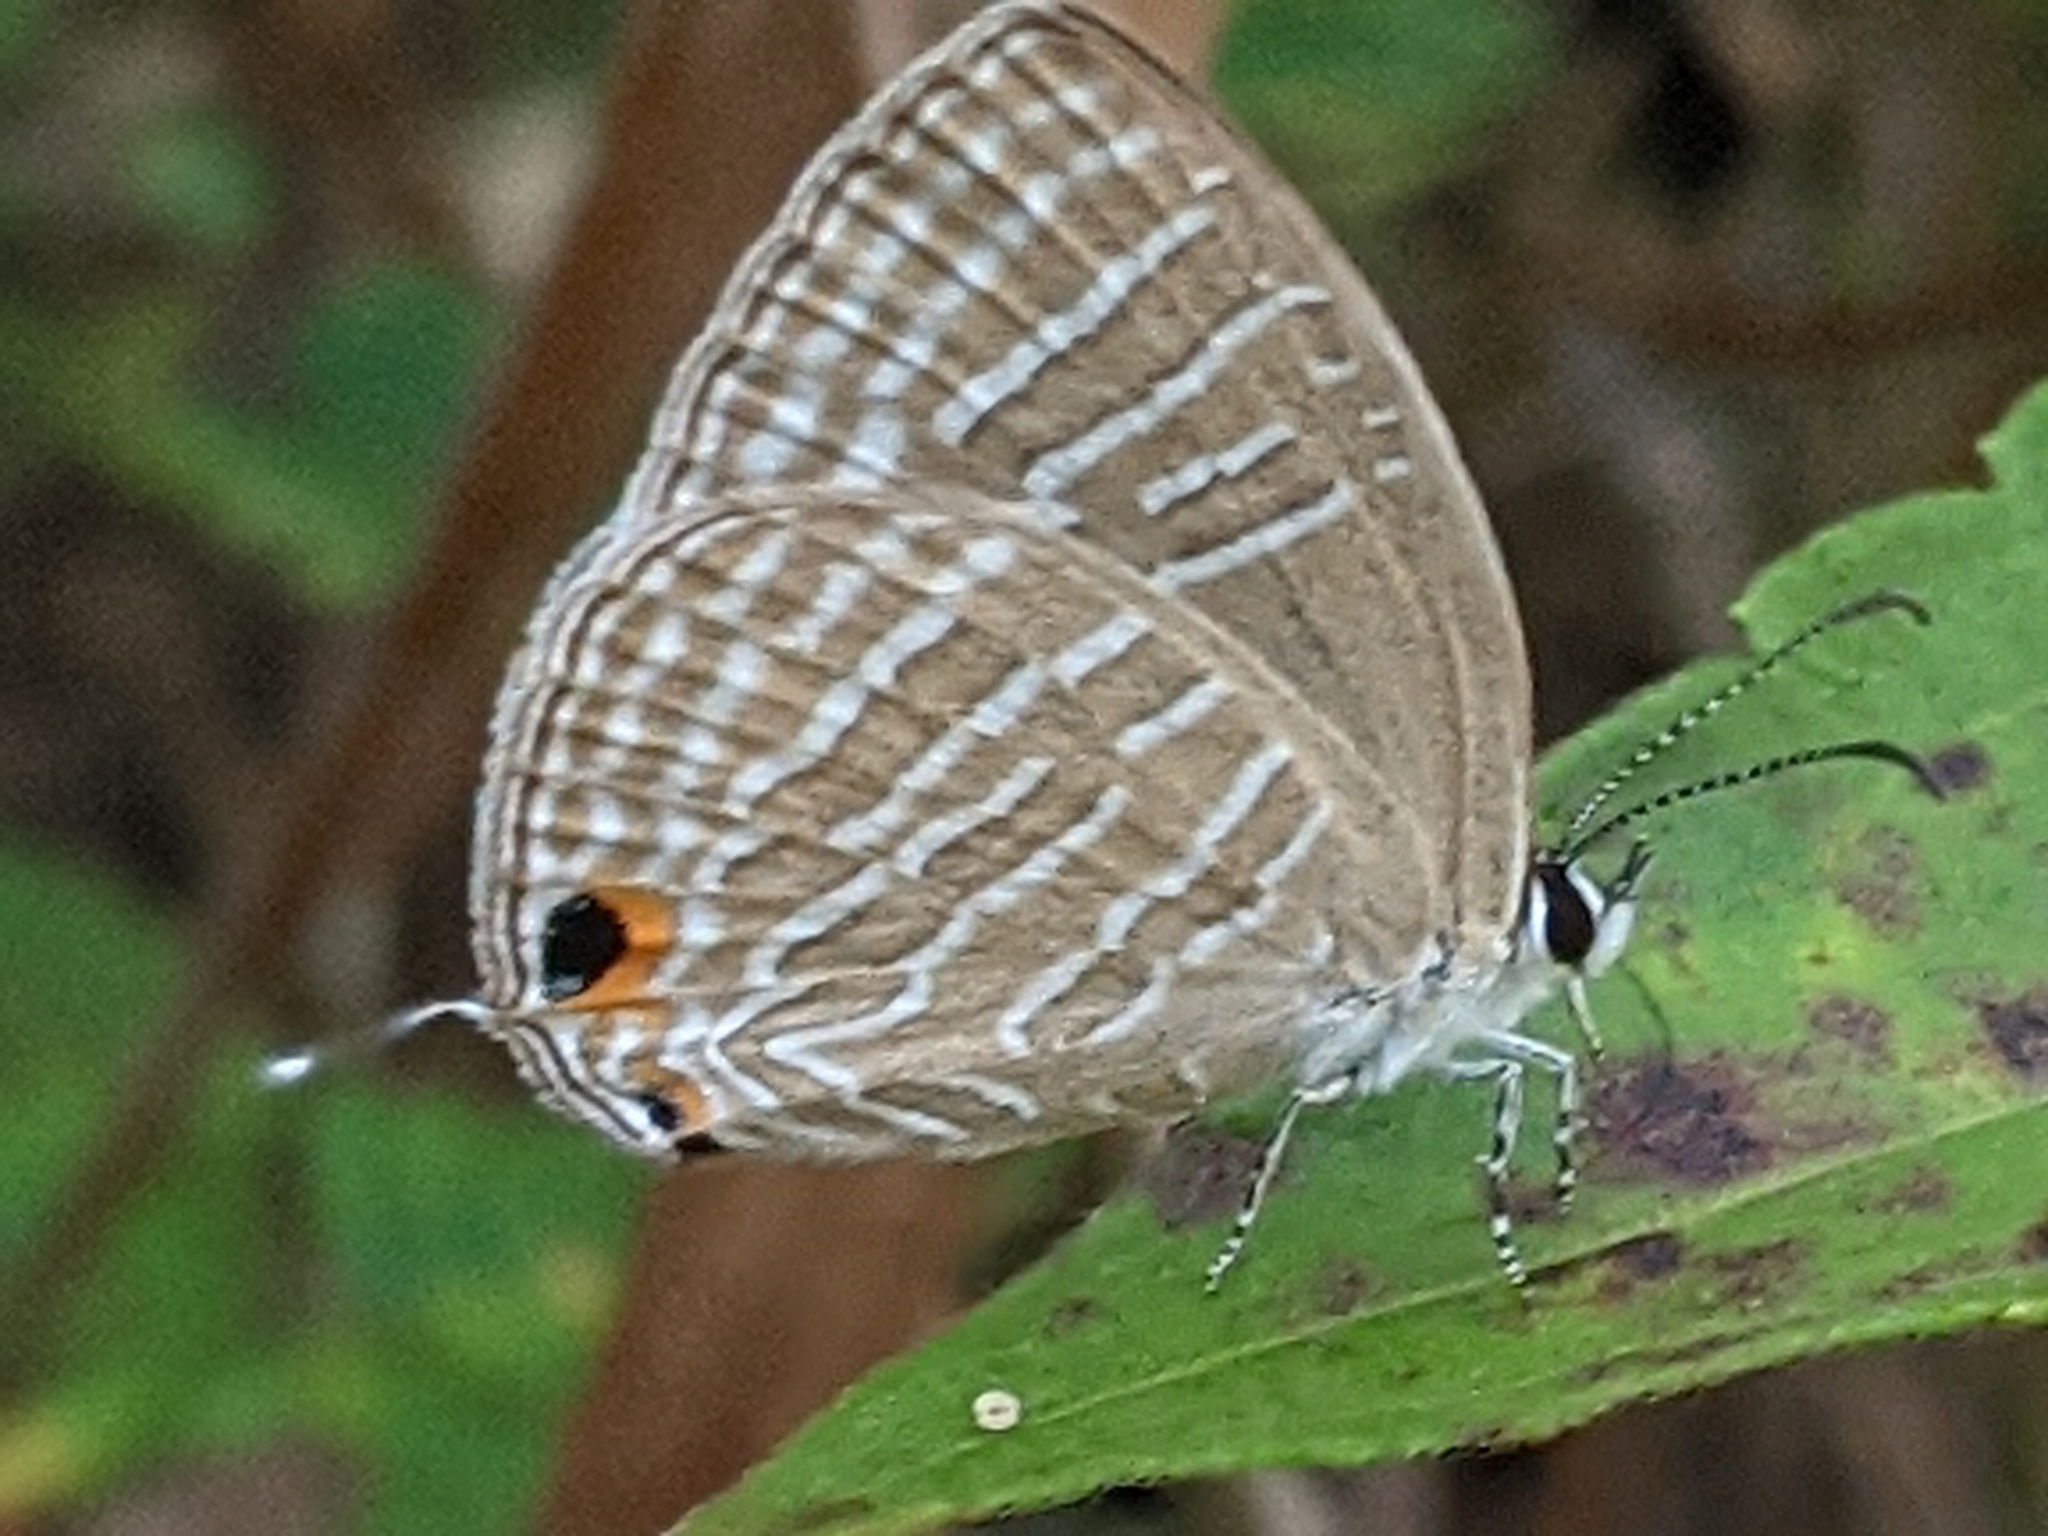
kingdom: Animalia
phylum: Arthropoda
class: Insecta
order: Lepidoptera
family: Lycaenidae
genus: Jamides
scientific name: Jamides celeno
